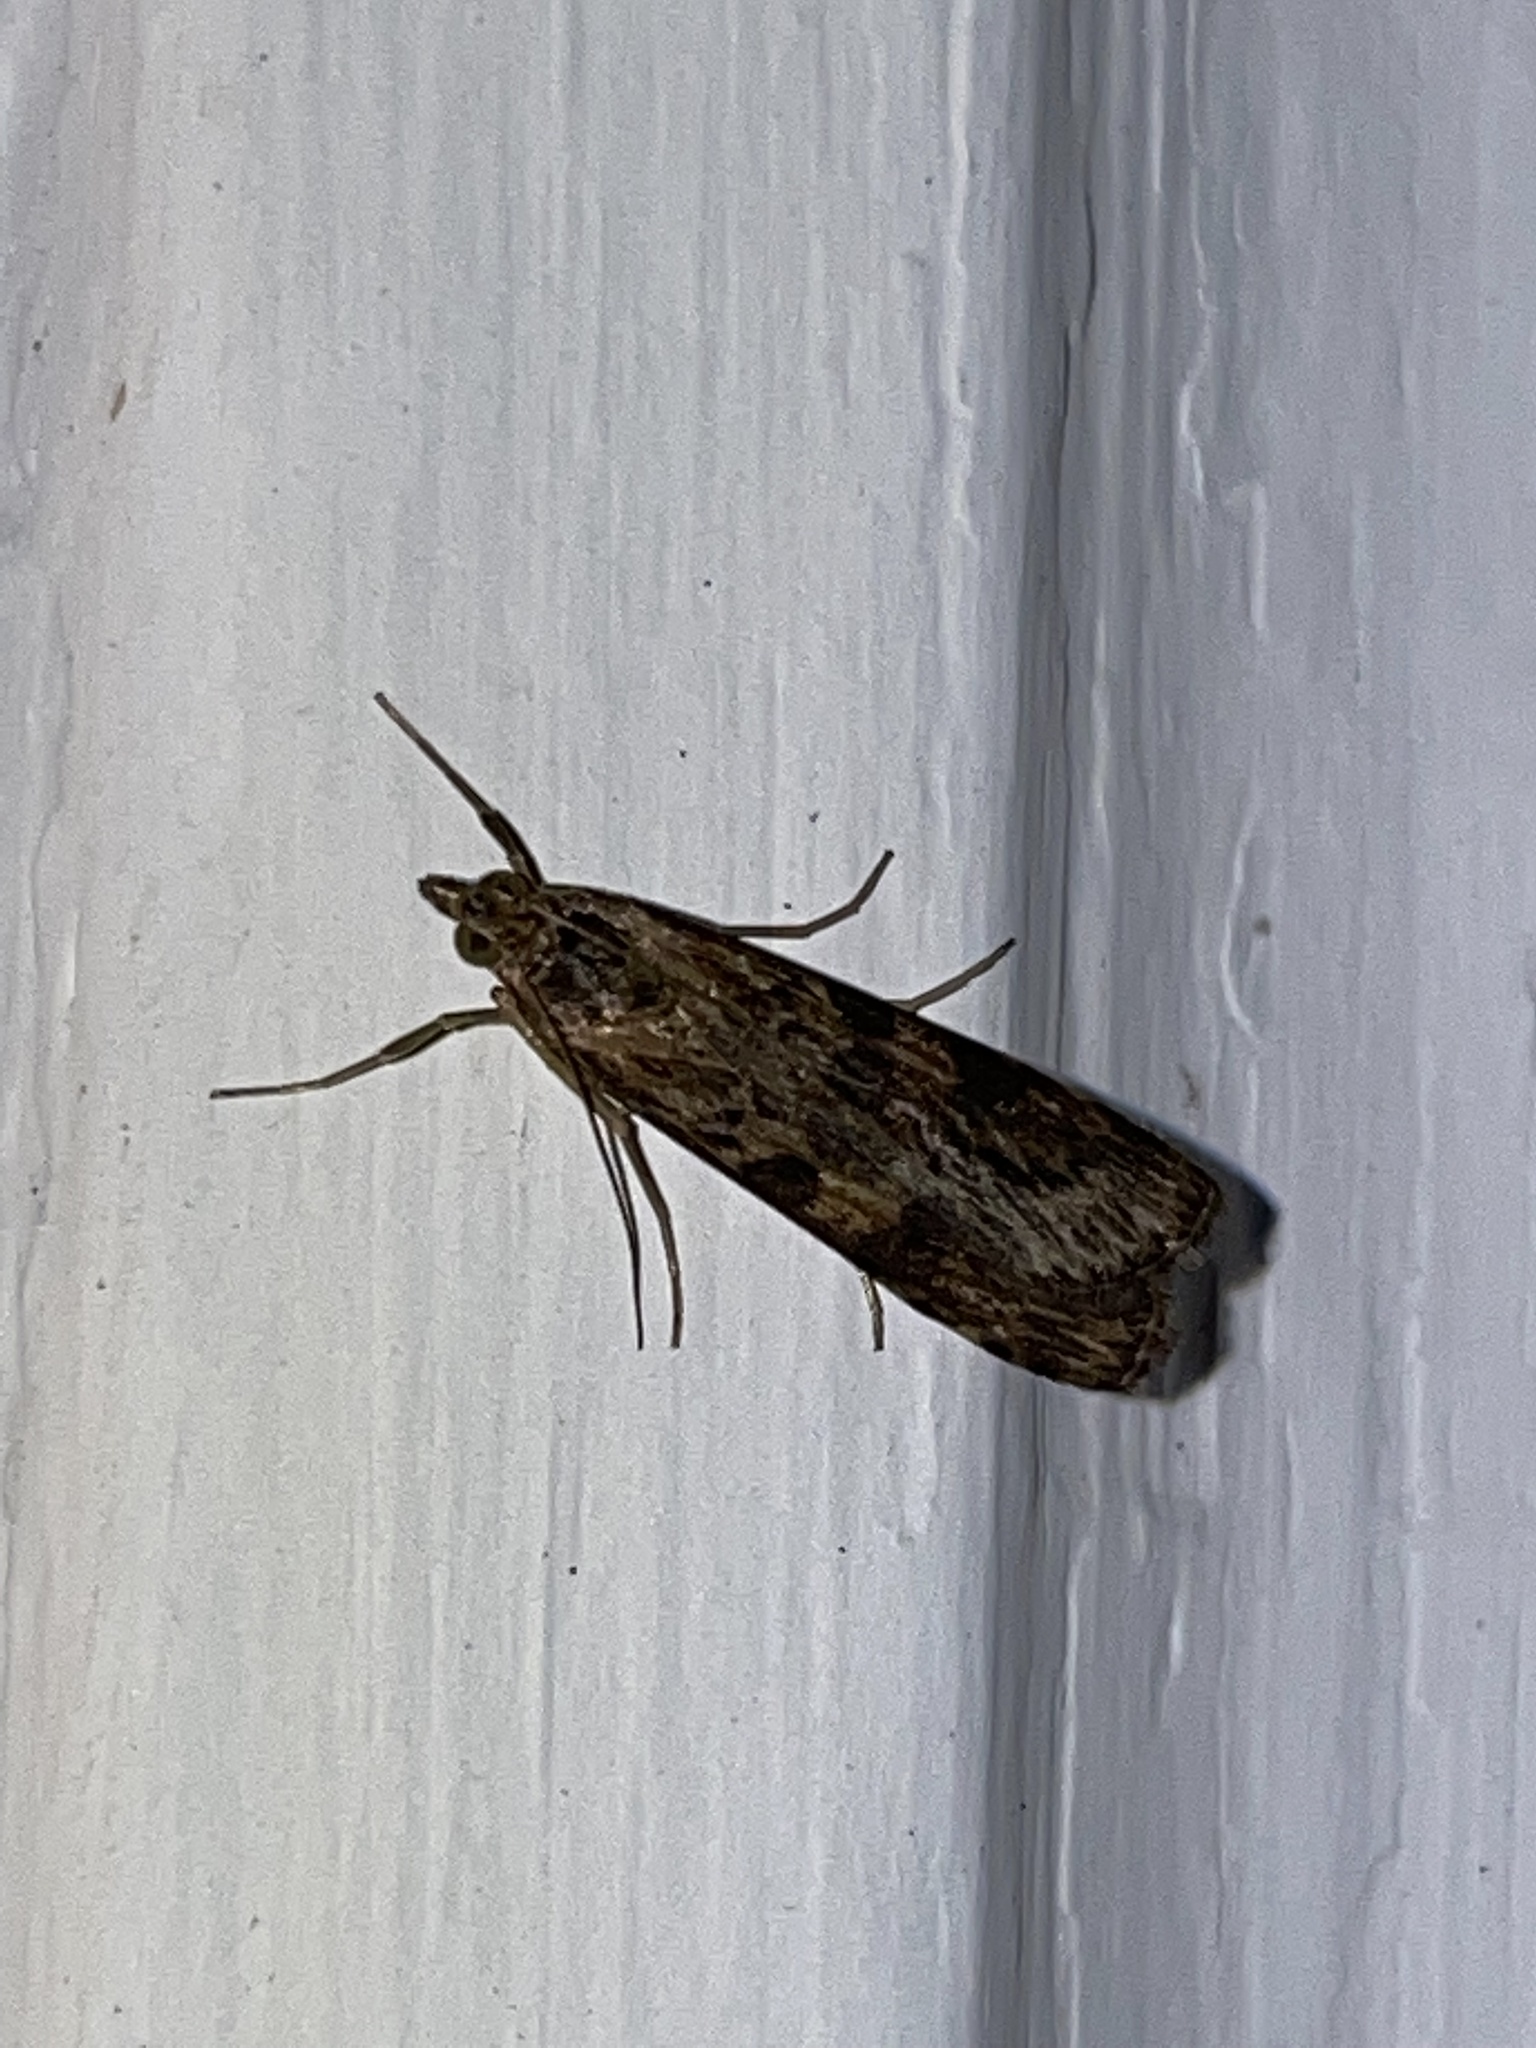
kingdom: Animalia
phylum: Arthropoda
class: Insecta
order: Lepidoptera
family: Crambidae
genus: Nomophila
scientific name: Nomophila nearctica
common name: American rush veneer
